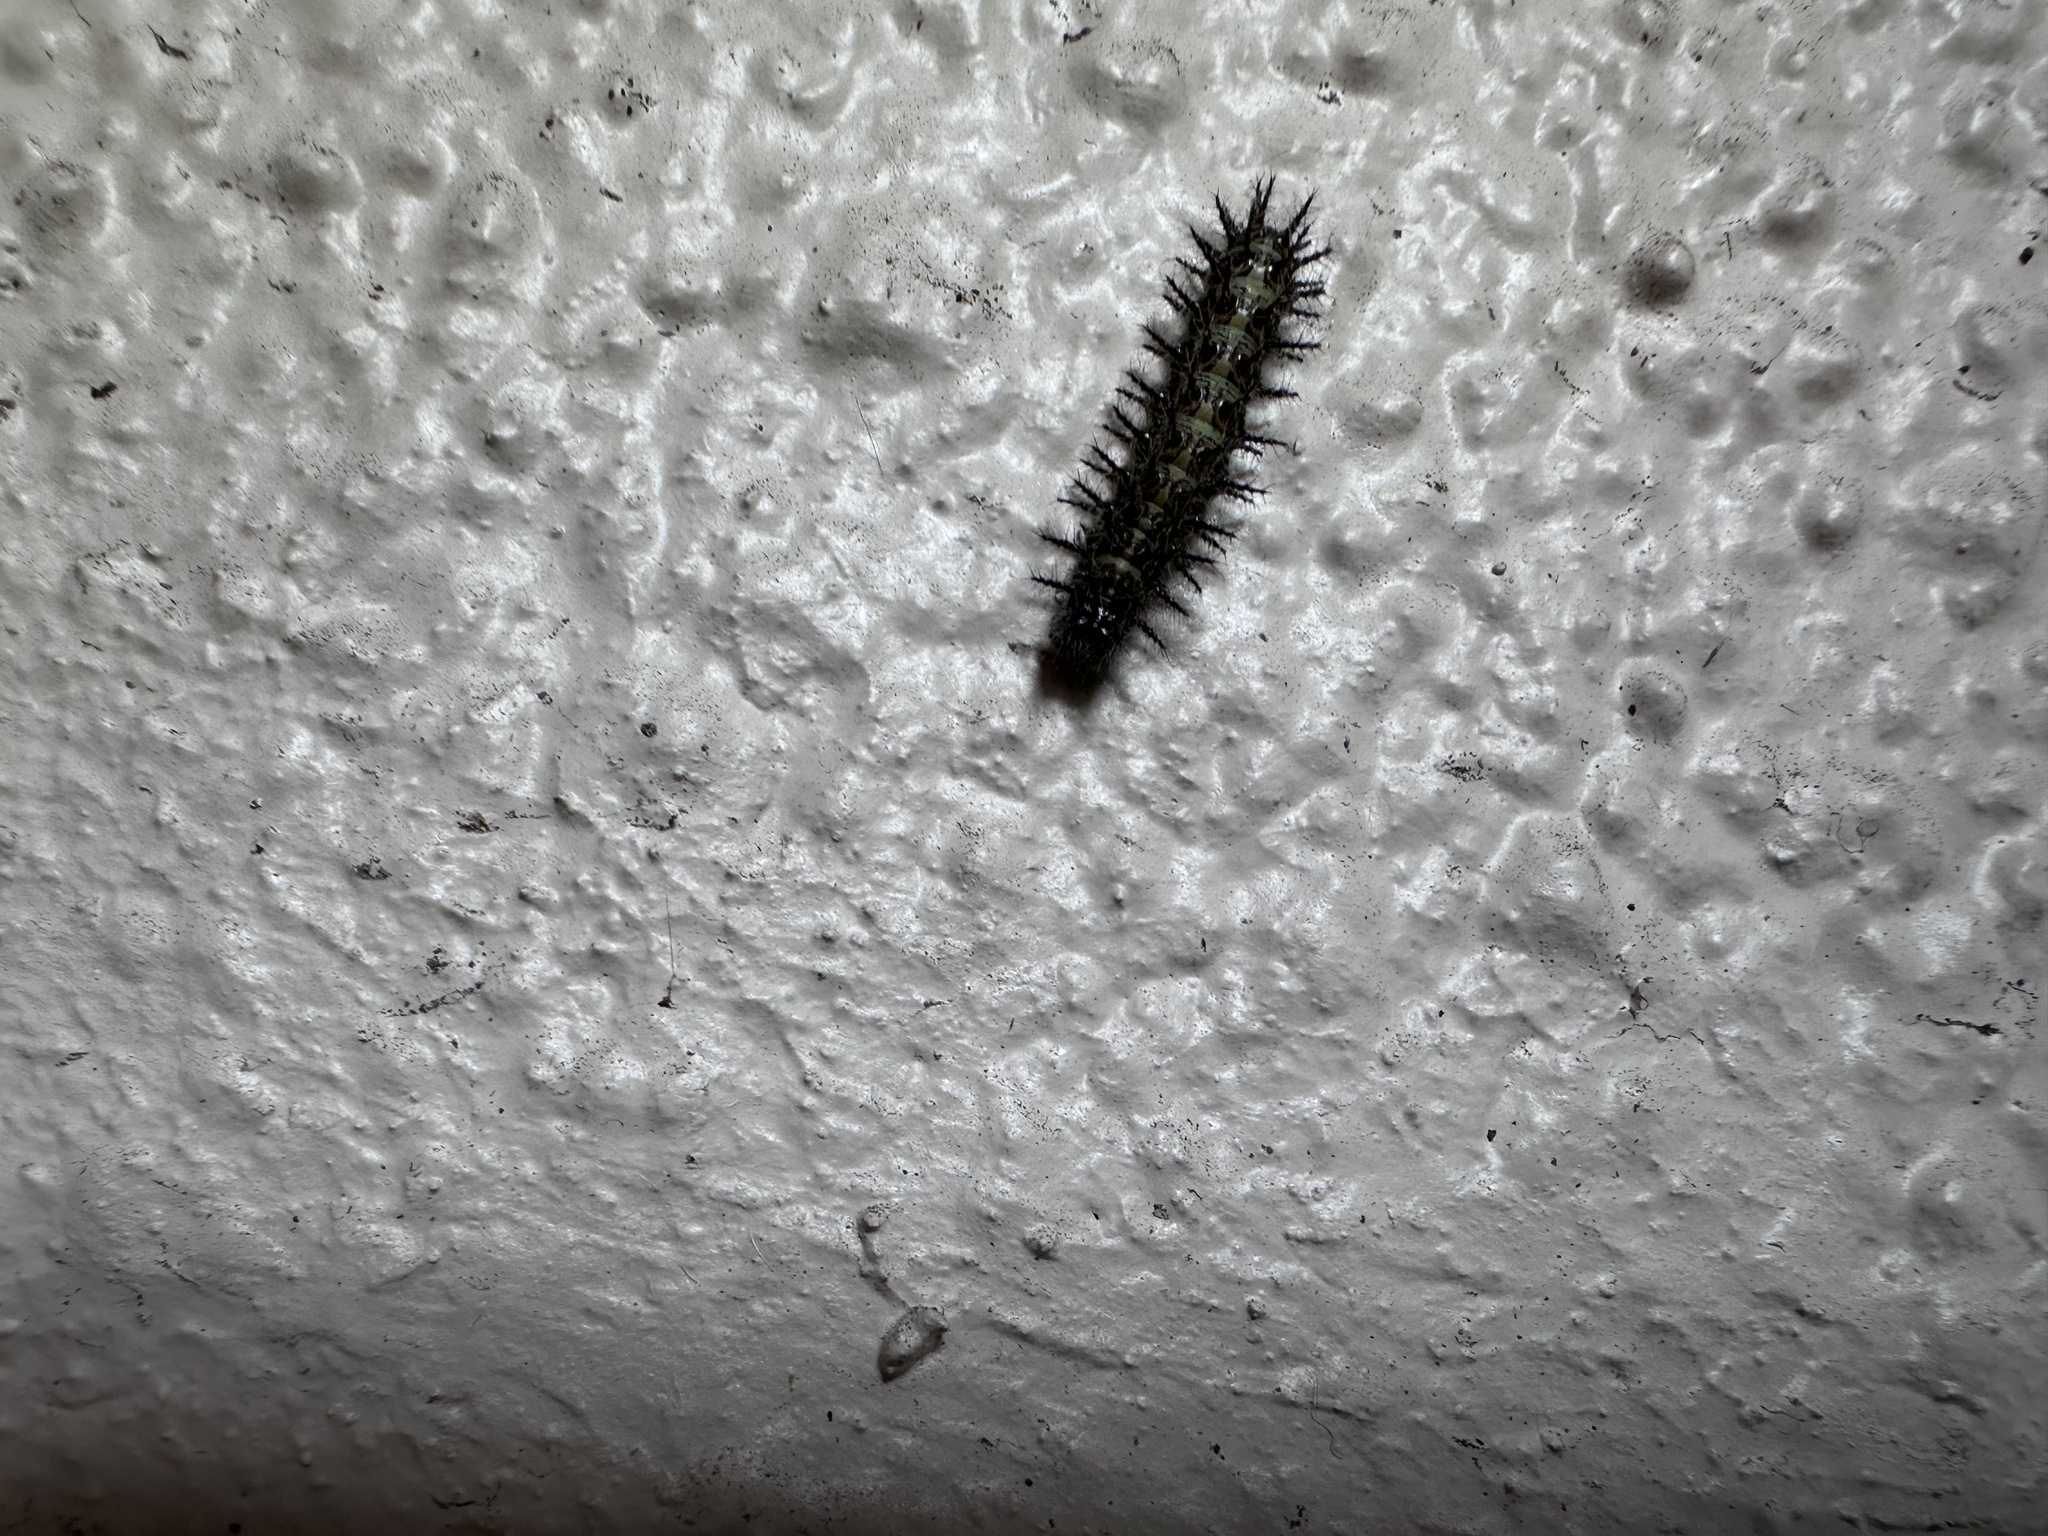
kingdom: Animalia
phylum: Arthropoda
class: Insecta
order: Lepidoptera
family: Nymphalidae
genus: Acraea
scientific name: Acraea horta
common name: Garden acraea
